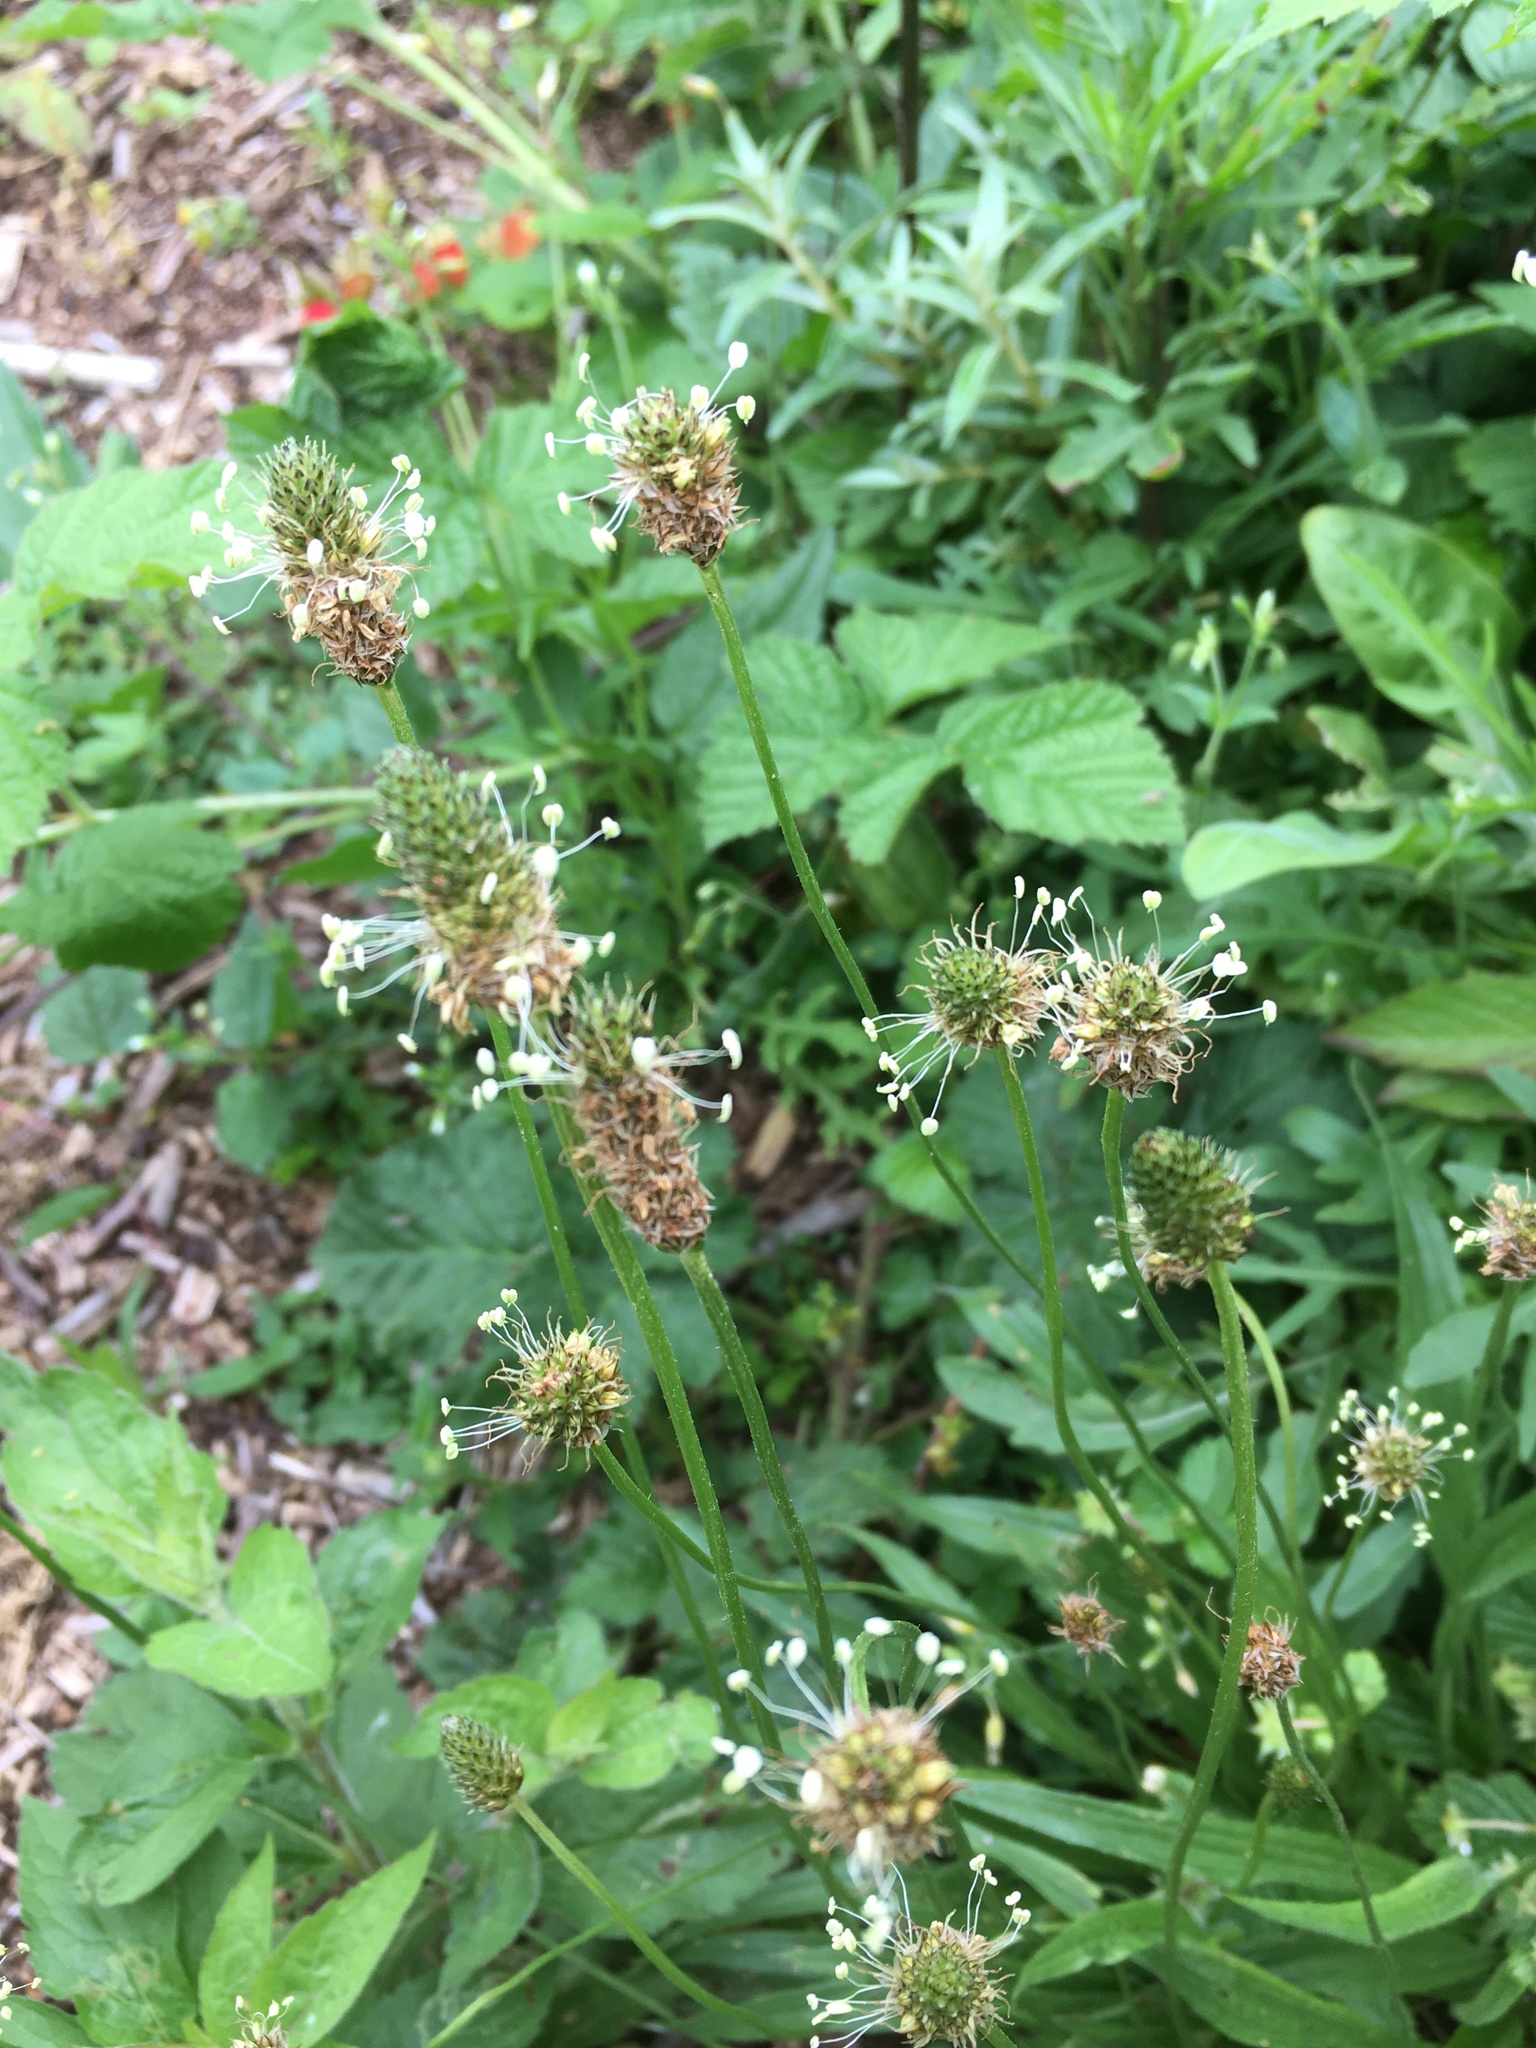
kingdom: Plantae
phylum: Tracheophyta
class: Magnoliopsida
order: Lamiales
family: Plantaginaceae
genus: Plantago
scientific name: Plantago lanceolata
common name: Ribwort plantain
